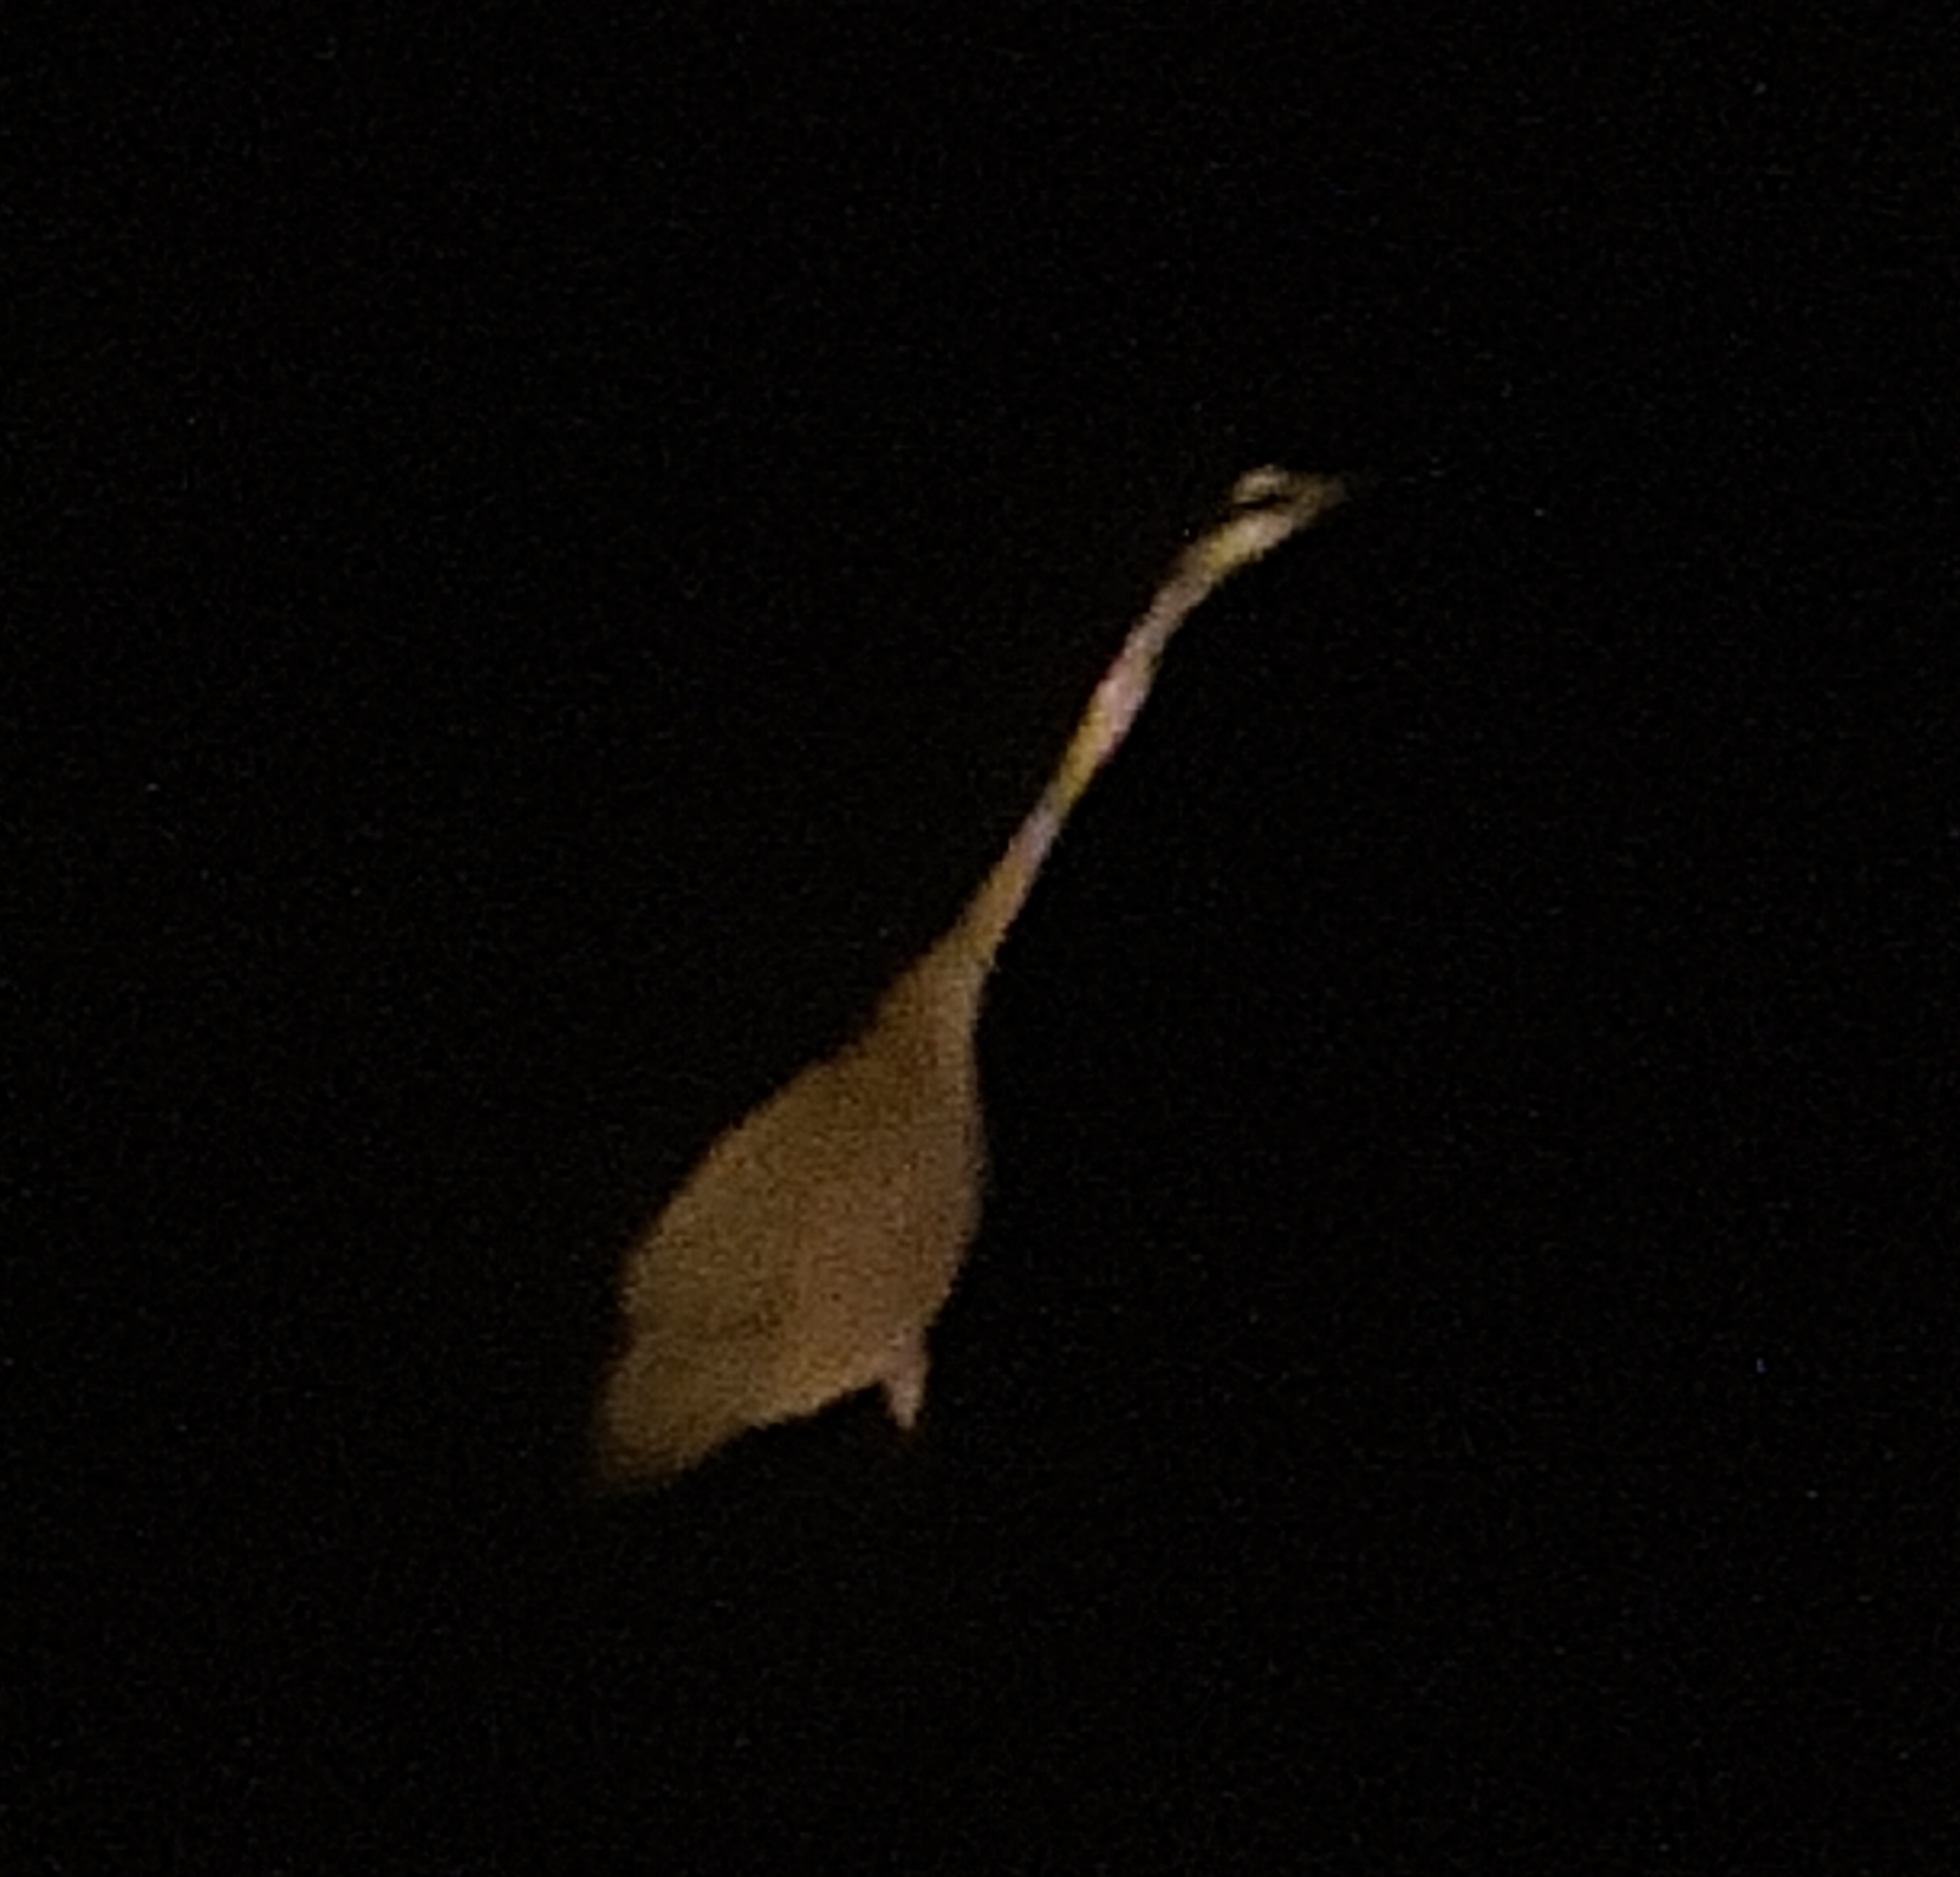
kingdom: Animalia
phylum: Chordata
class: Aves
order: Pelecaniformes
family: Ardeidae
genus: Ardea
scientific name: Ardea cinerea
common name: Grey heron
